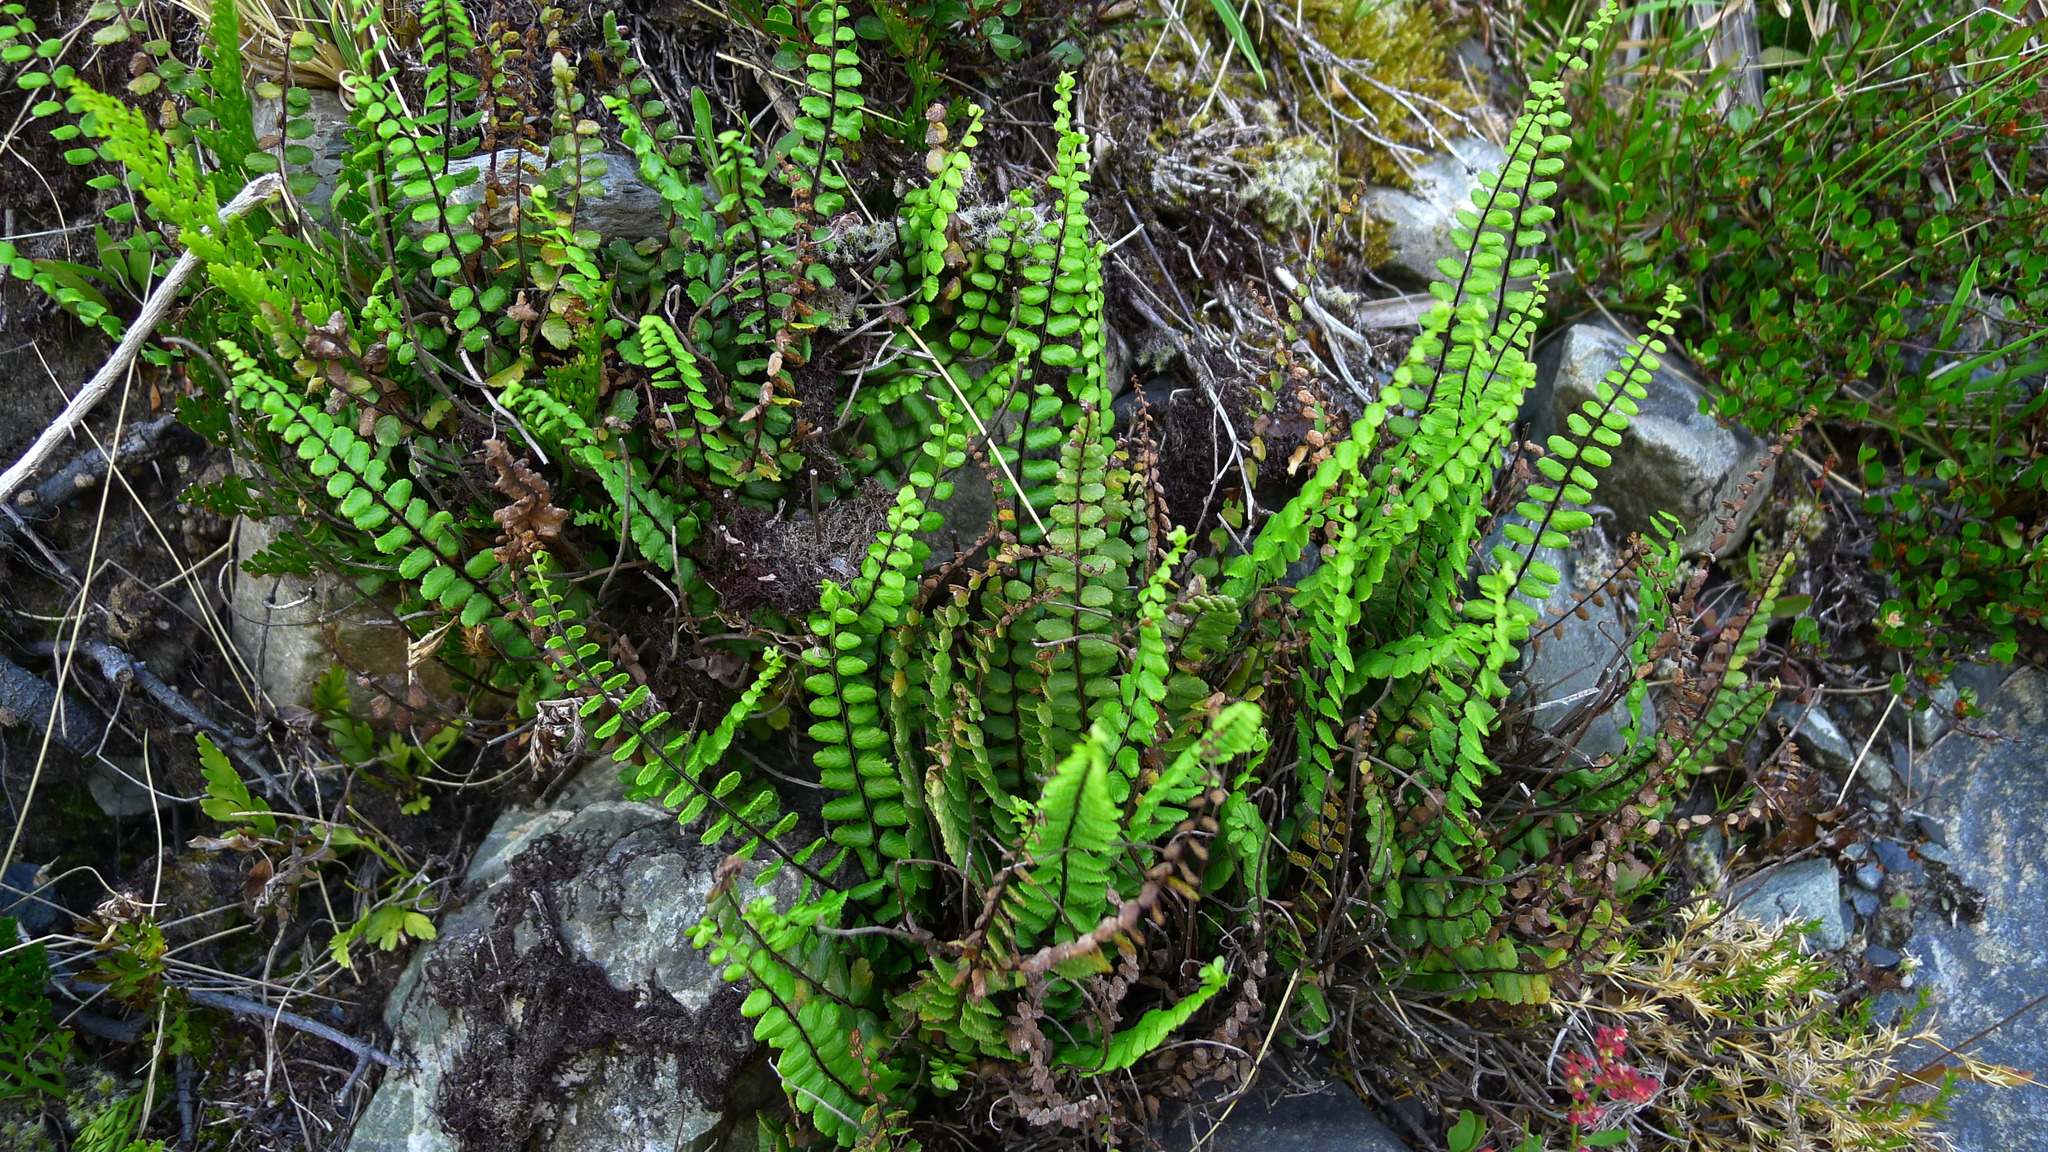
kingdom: Plantae
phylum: Tracheophyta
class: Polypodiopsida
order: Polypodiales
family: Aspleniaceae
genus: Asplenium
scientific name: Asplenium trichomanes
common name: Maidenhair spleenwort
